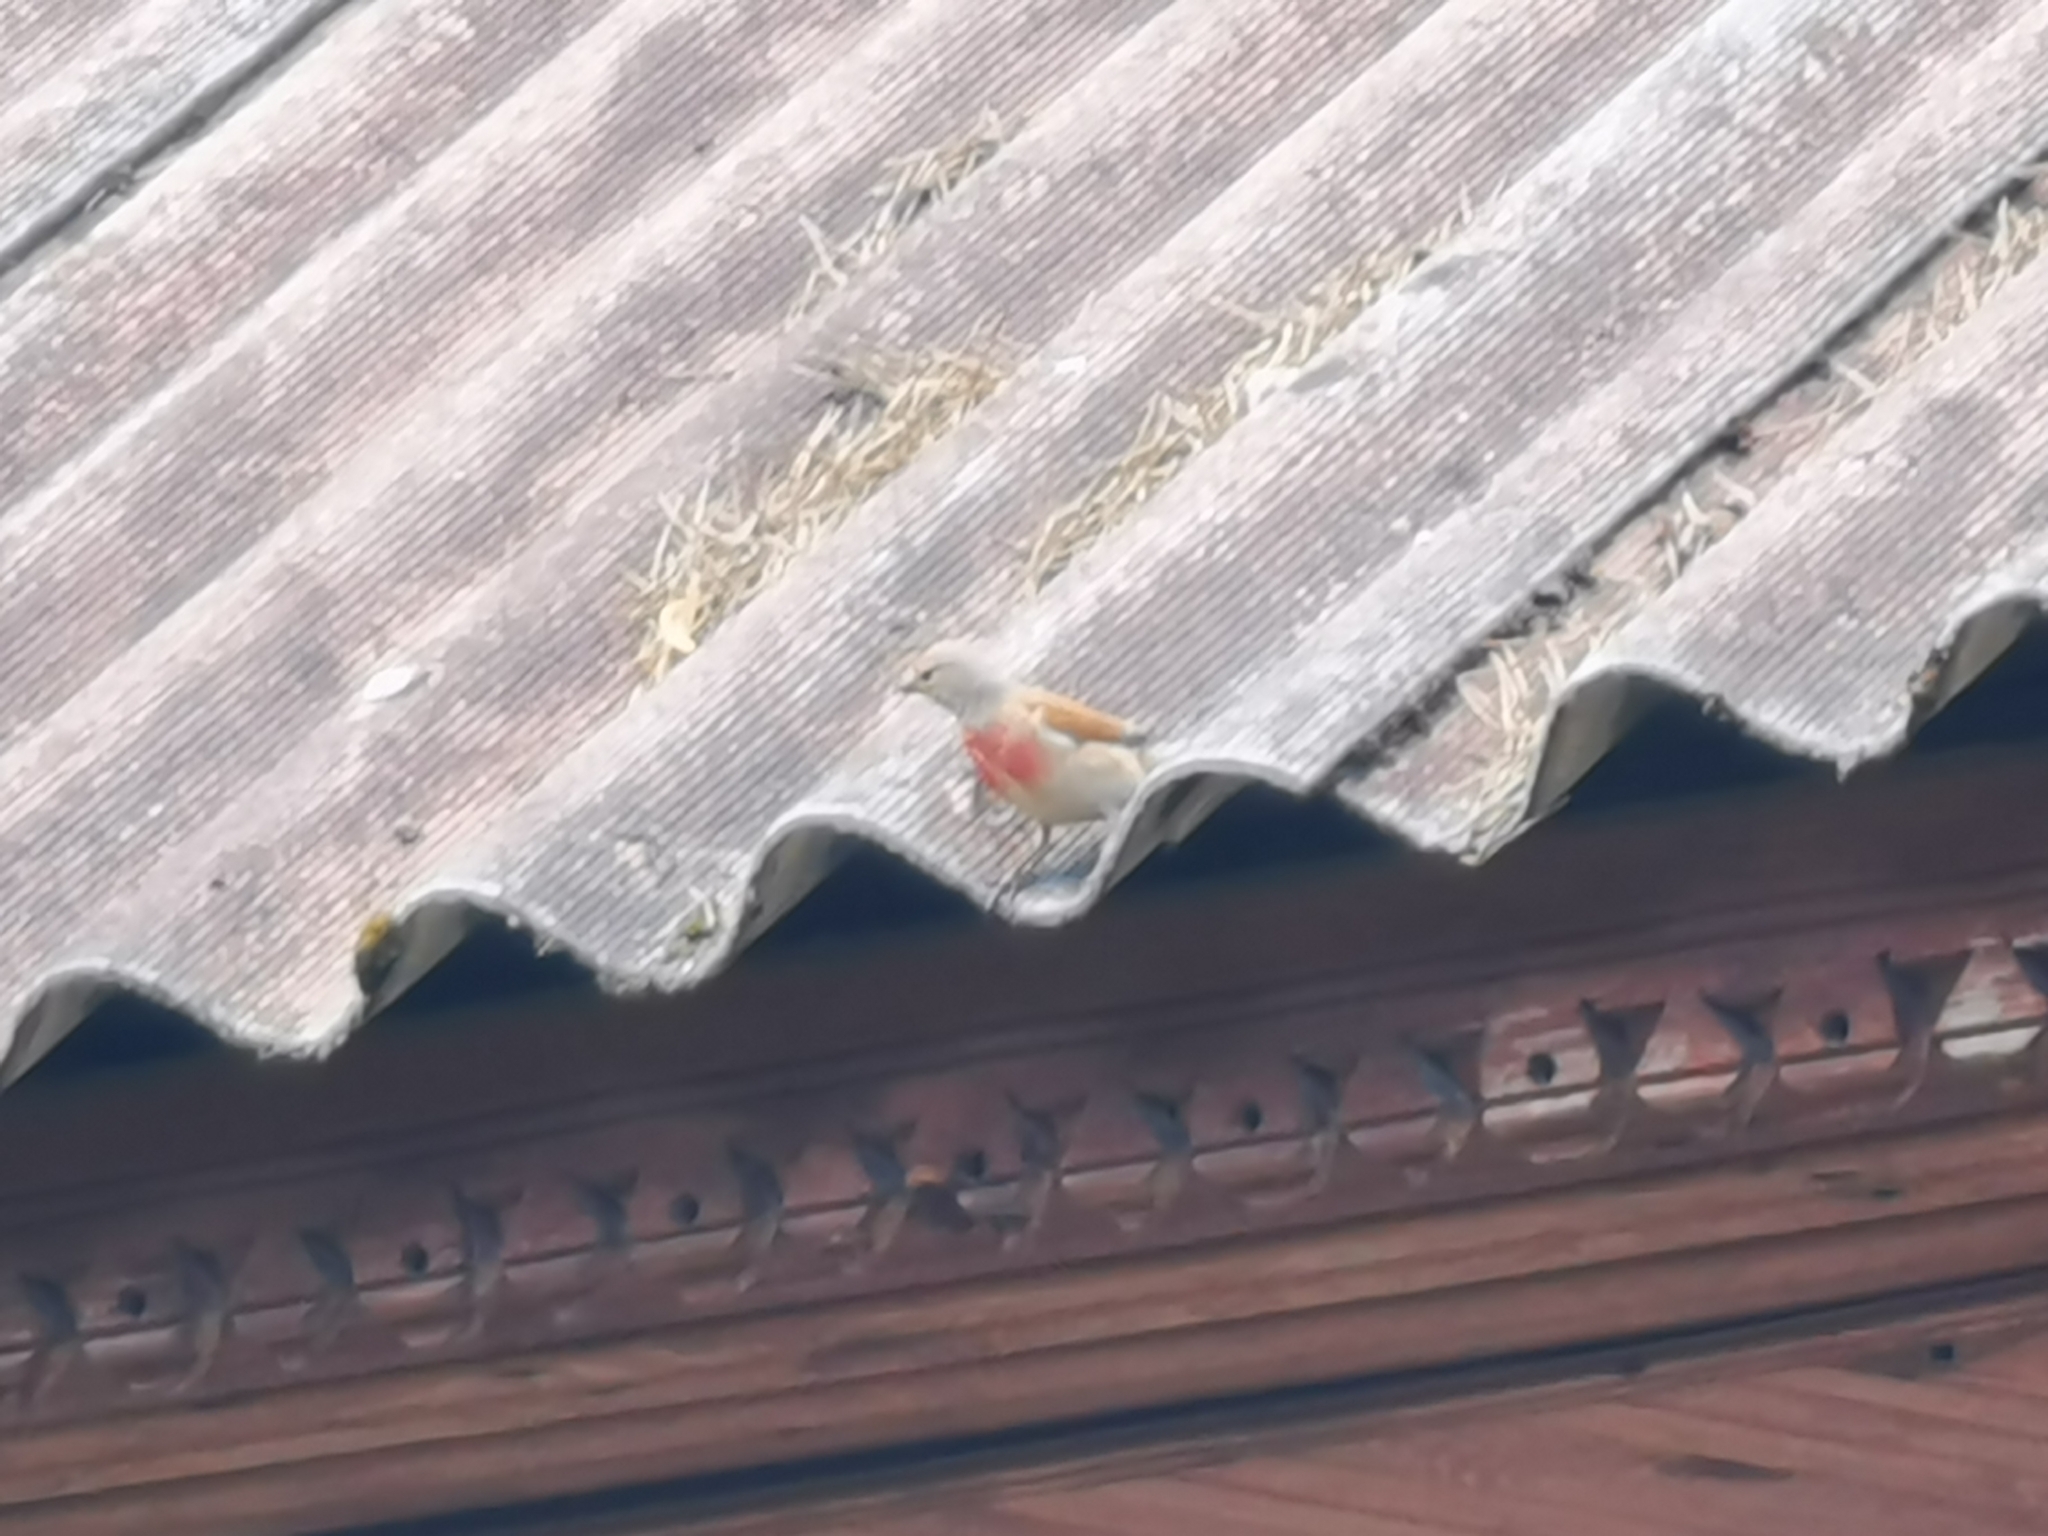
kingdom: Animalia
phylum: Chordata
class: Aves
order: Passeriformes
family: Fringillidae
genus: Linaria
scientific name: Linaria cannabina
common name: Common linnet
